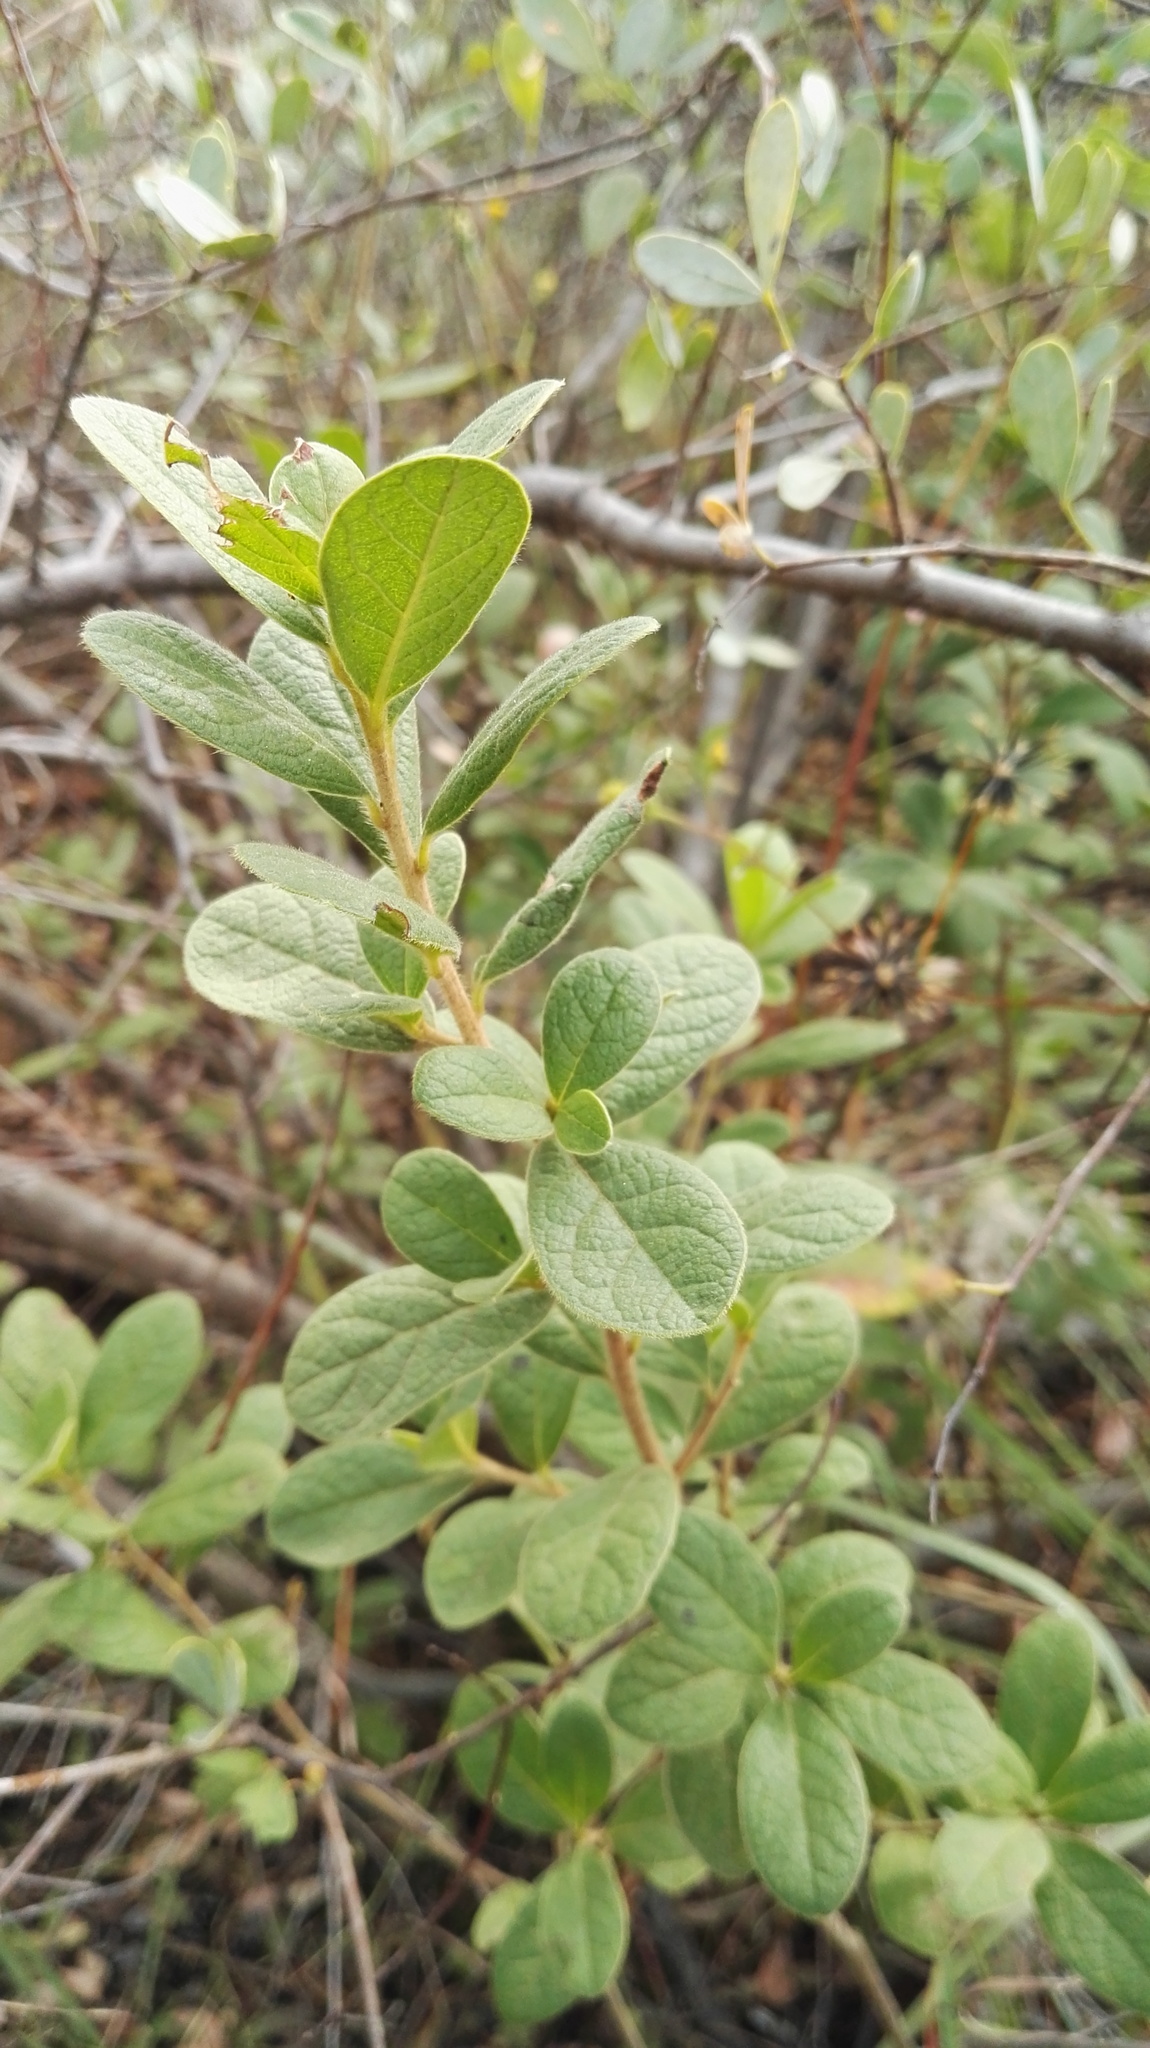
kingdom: Plantae
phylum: Tracheophyta
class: Magnoliopsida
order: Ericales
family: Ebenaceae
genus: Diospyros
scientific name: Diospyros lycioides
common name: Red star apple
